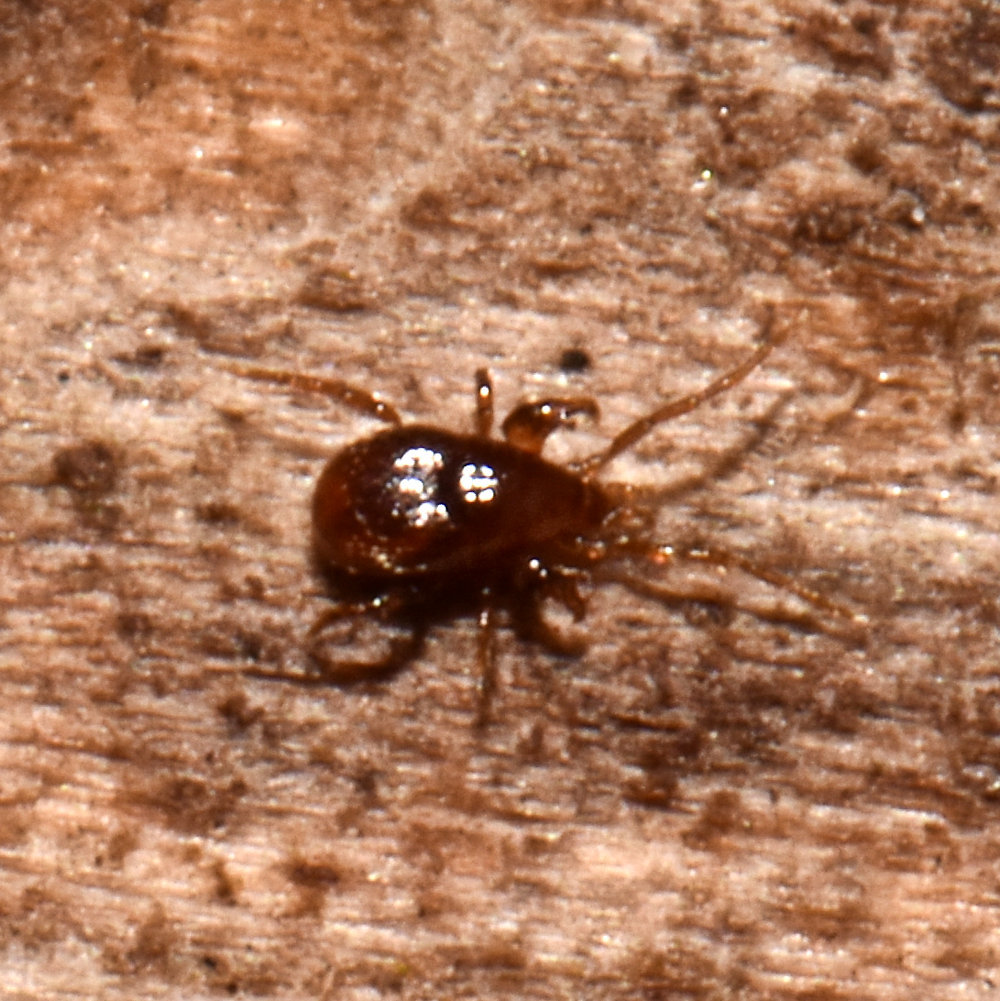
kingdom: Animalia
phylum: Arthropoda
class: Arachnida
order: Mesostigmata
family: Parasitidae
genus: Pergamasus
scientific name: Pergamasus
